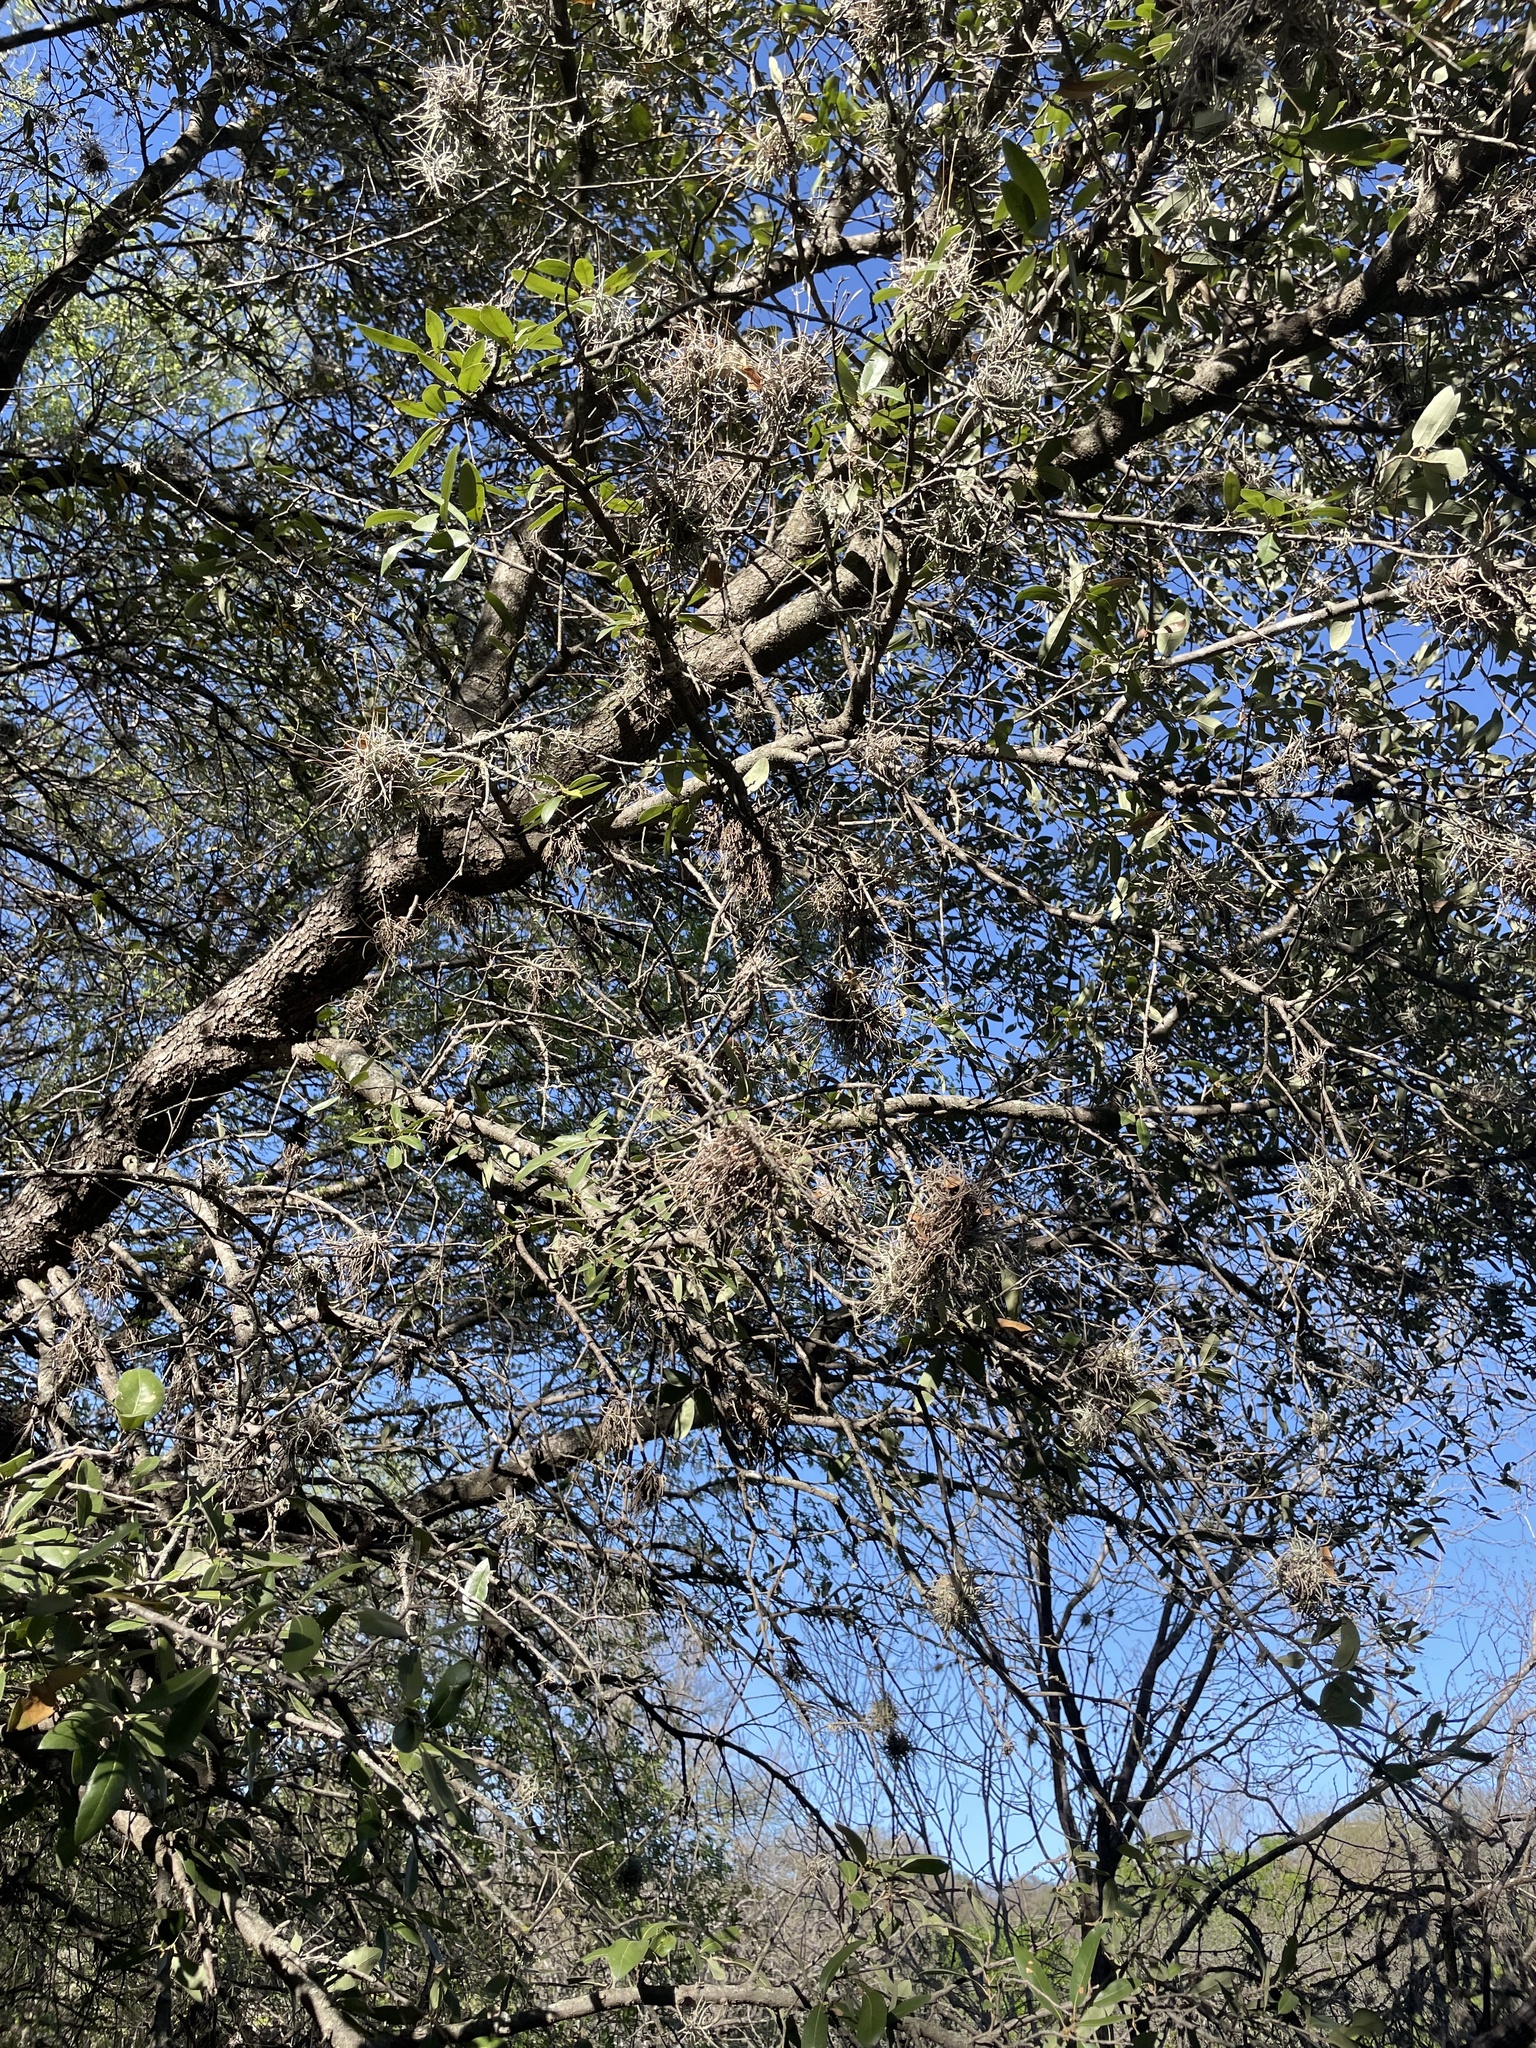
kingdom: Plantae
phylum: Tracheophyta
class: Liliopsida
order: Poales
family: Bromeliaceae
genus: Tillandsia
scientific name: Tillandsia recurvata
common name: Small ballmoss
